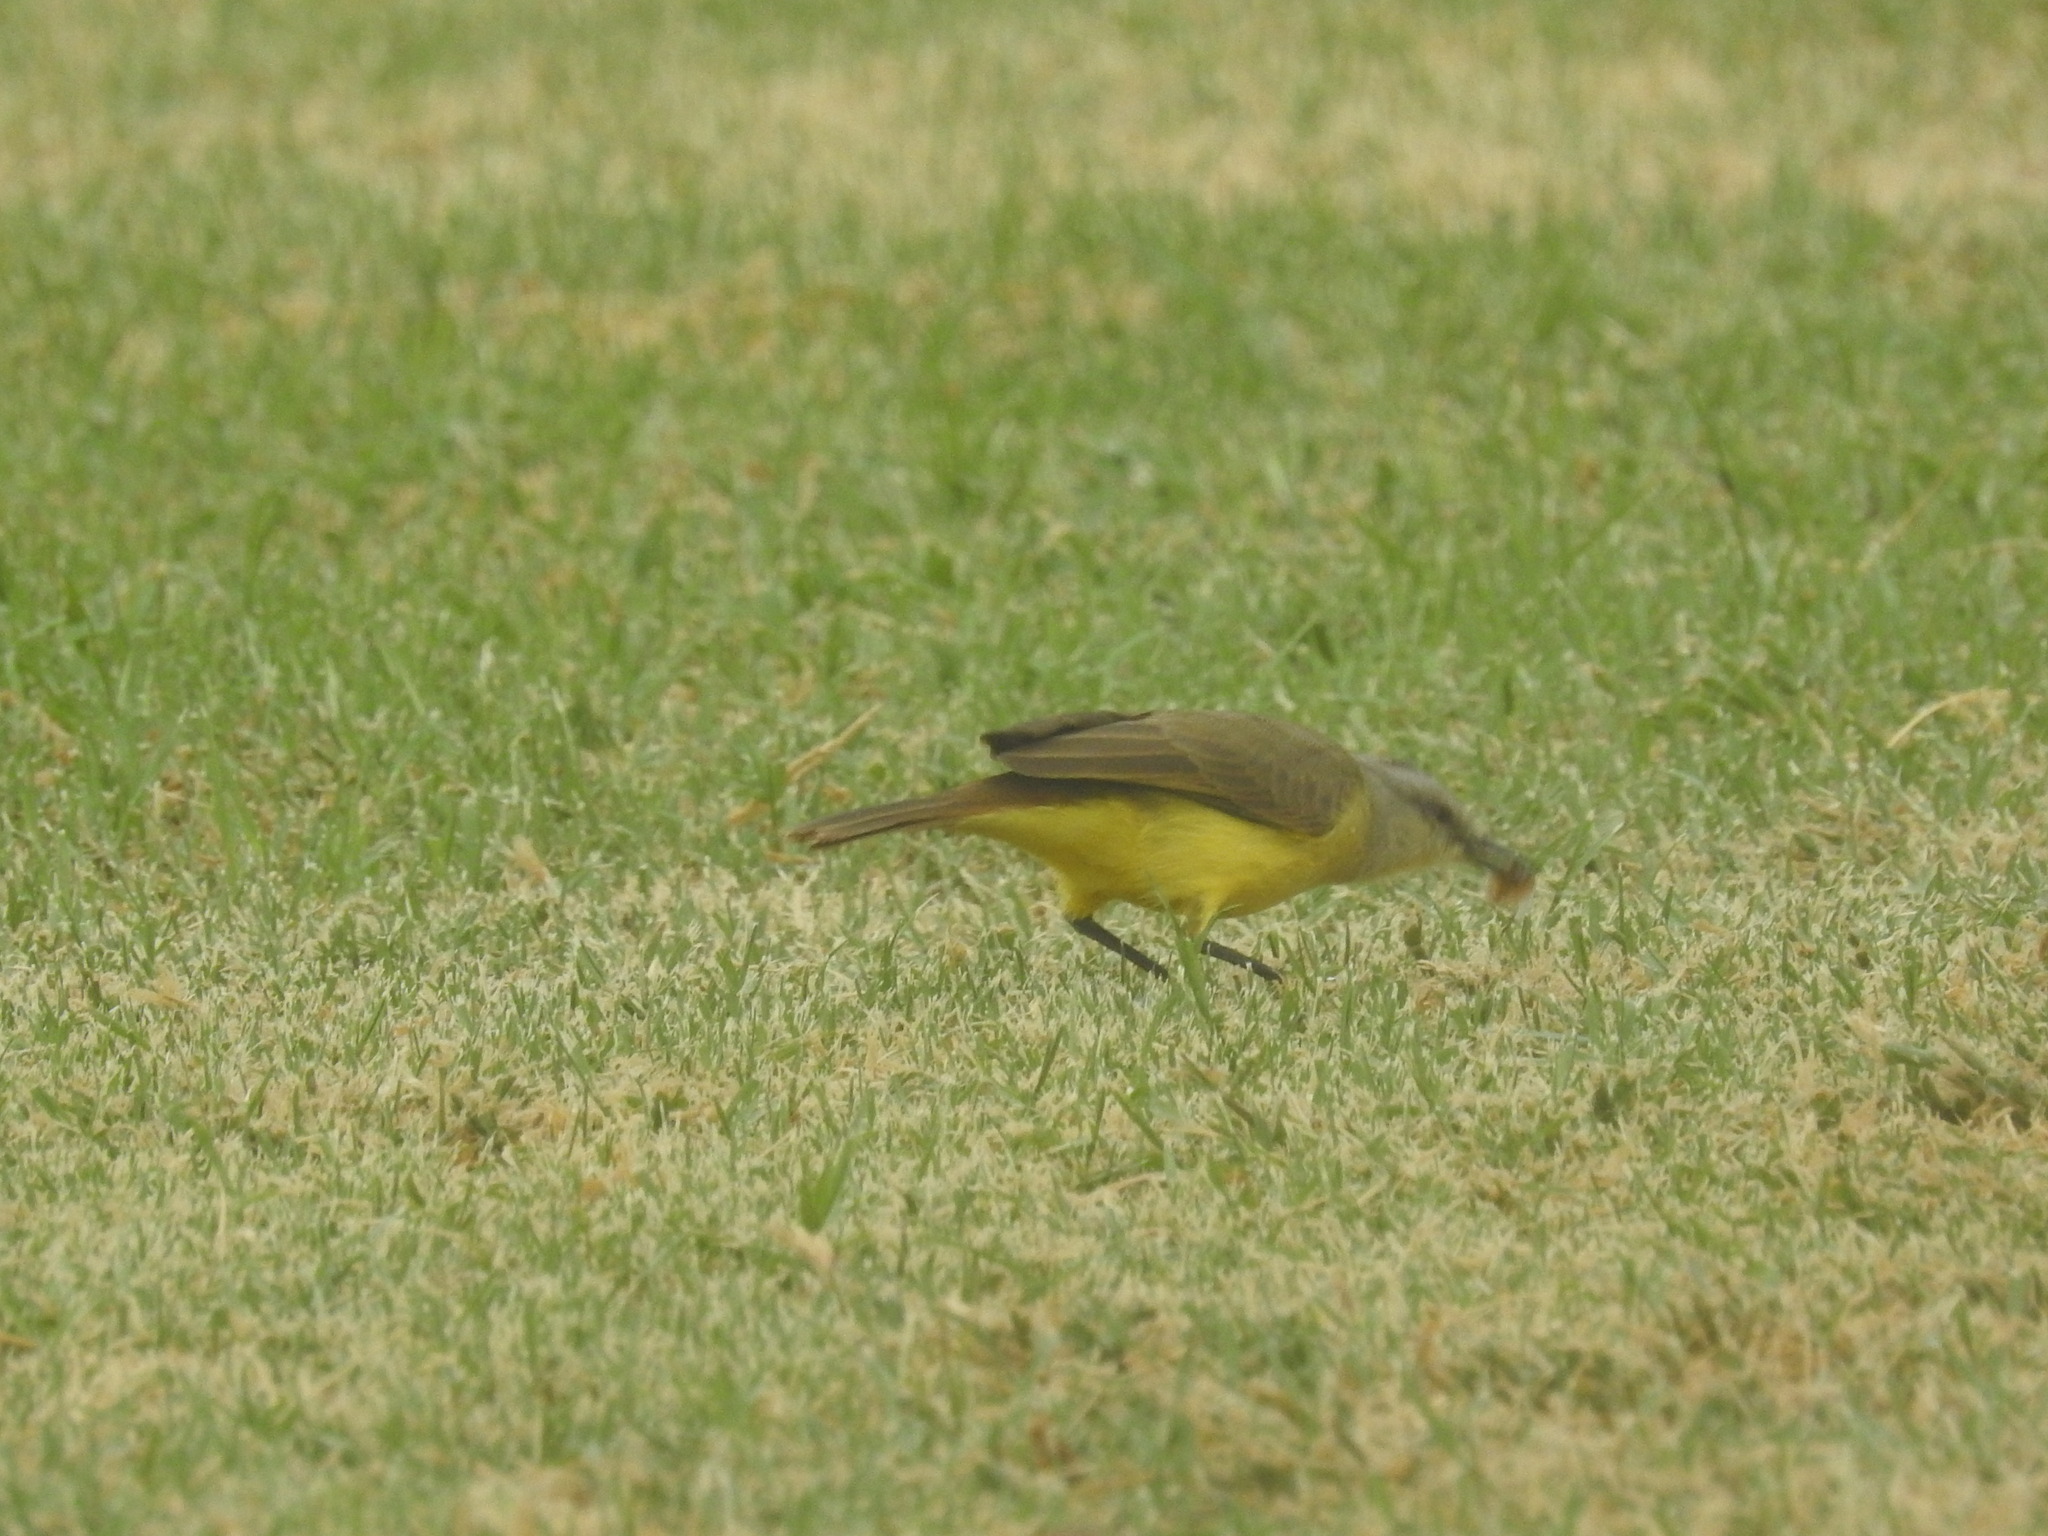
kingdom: Animalia
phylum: Chordata
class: Aves
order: Passeriformes
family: Tyrannidae
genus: Machetornis
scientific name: Machetornis rixosa
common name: Cattle tyrant
